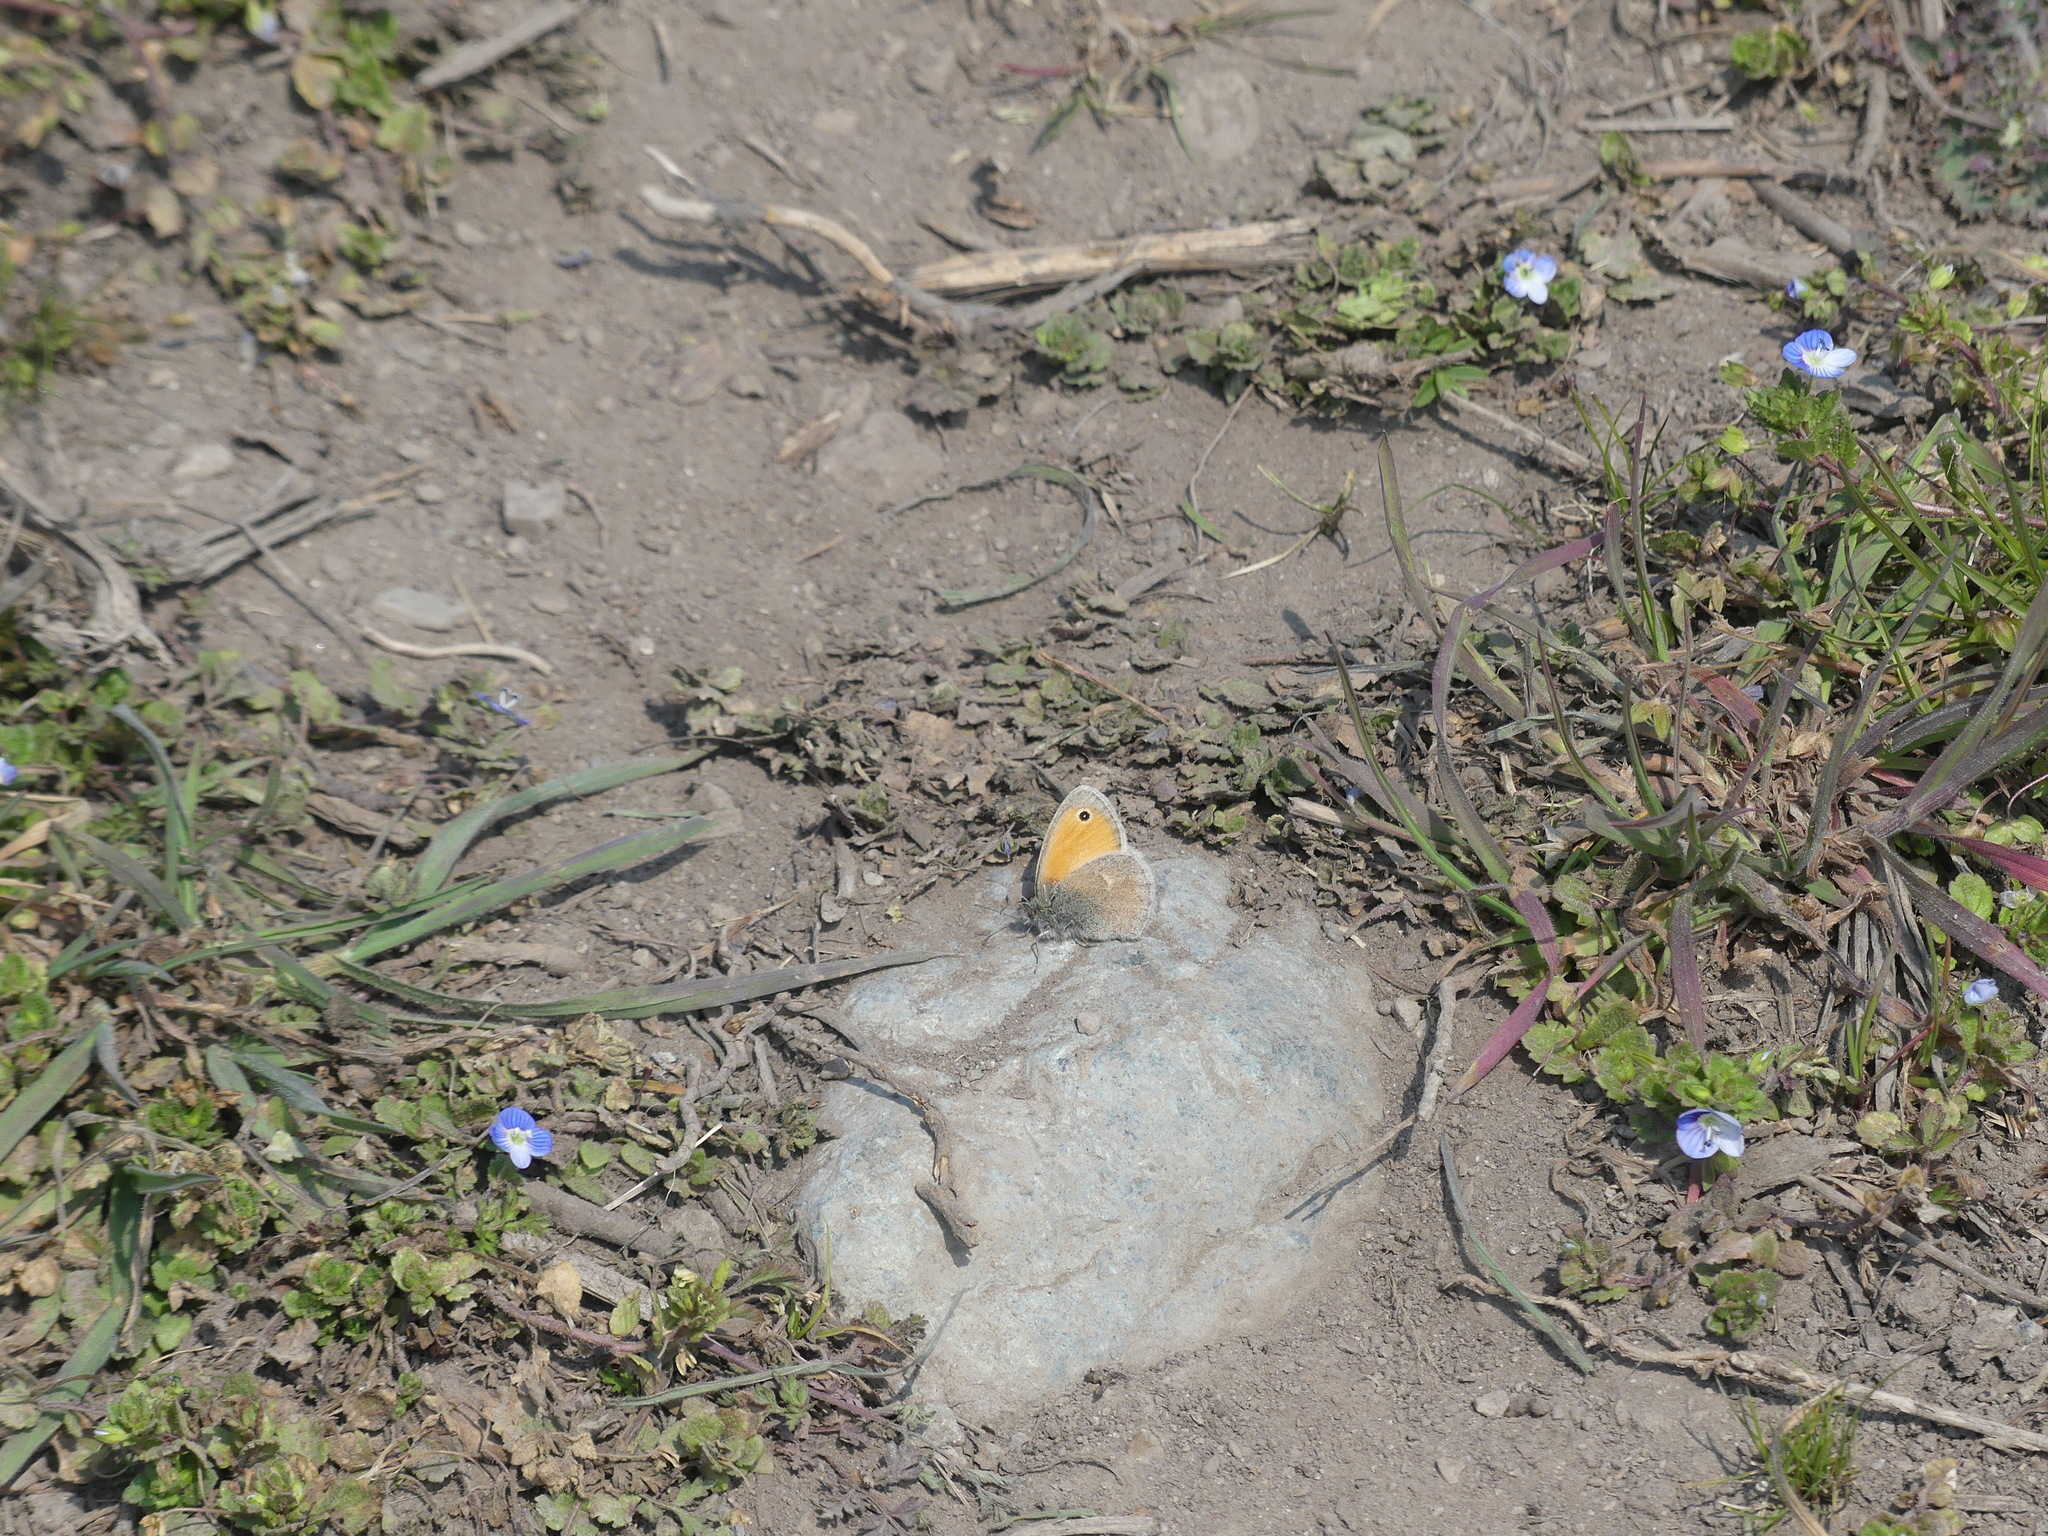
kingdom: Animalia
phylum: Arthropoda
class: Insecta
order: Lepidoptera
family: Nymphalidae
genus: Coenonympha
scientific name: Coenonympha pamphilus
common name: Small heath
